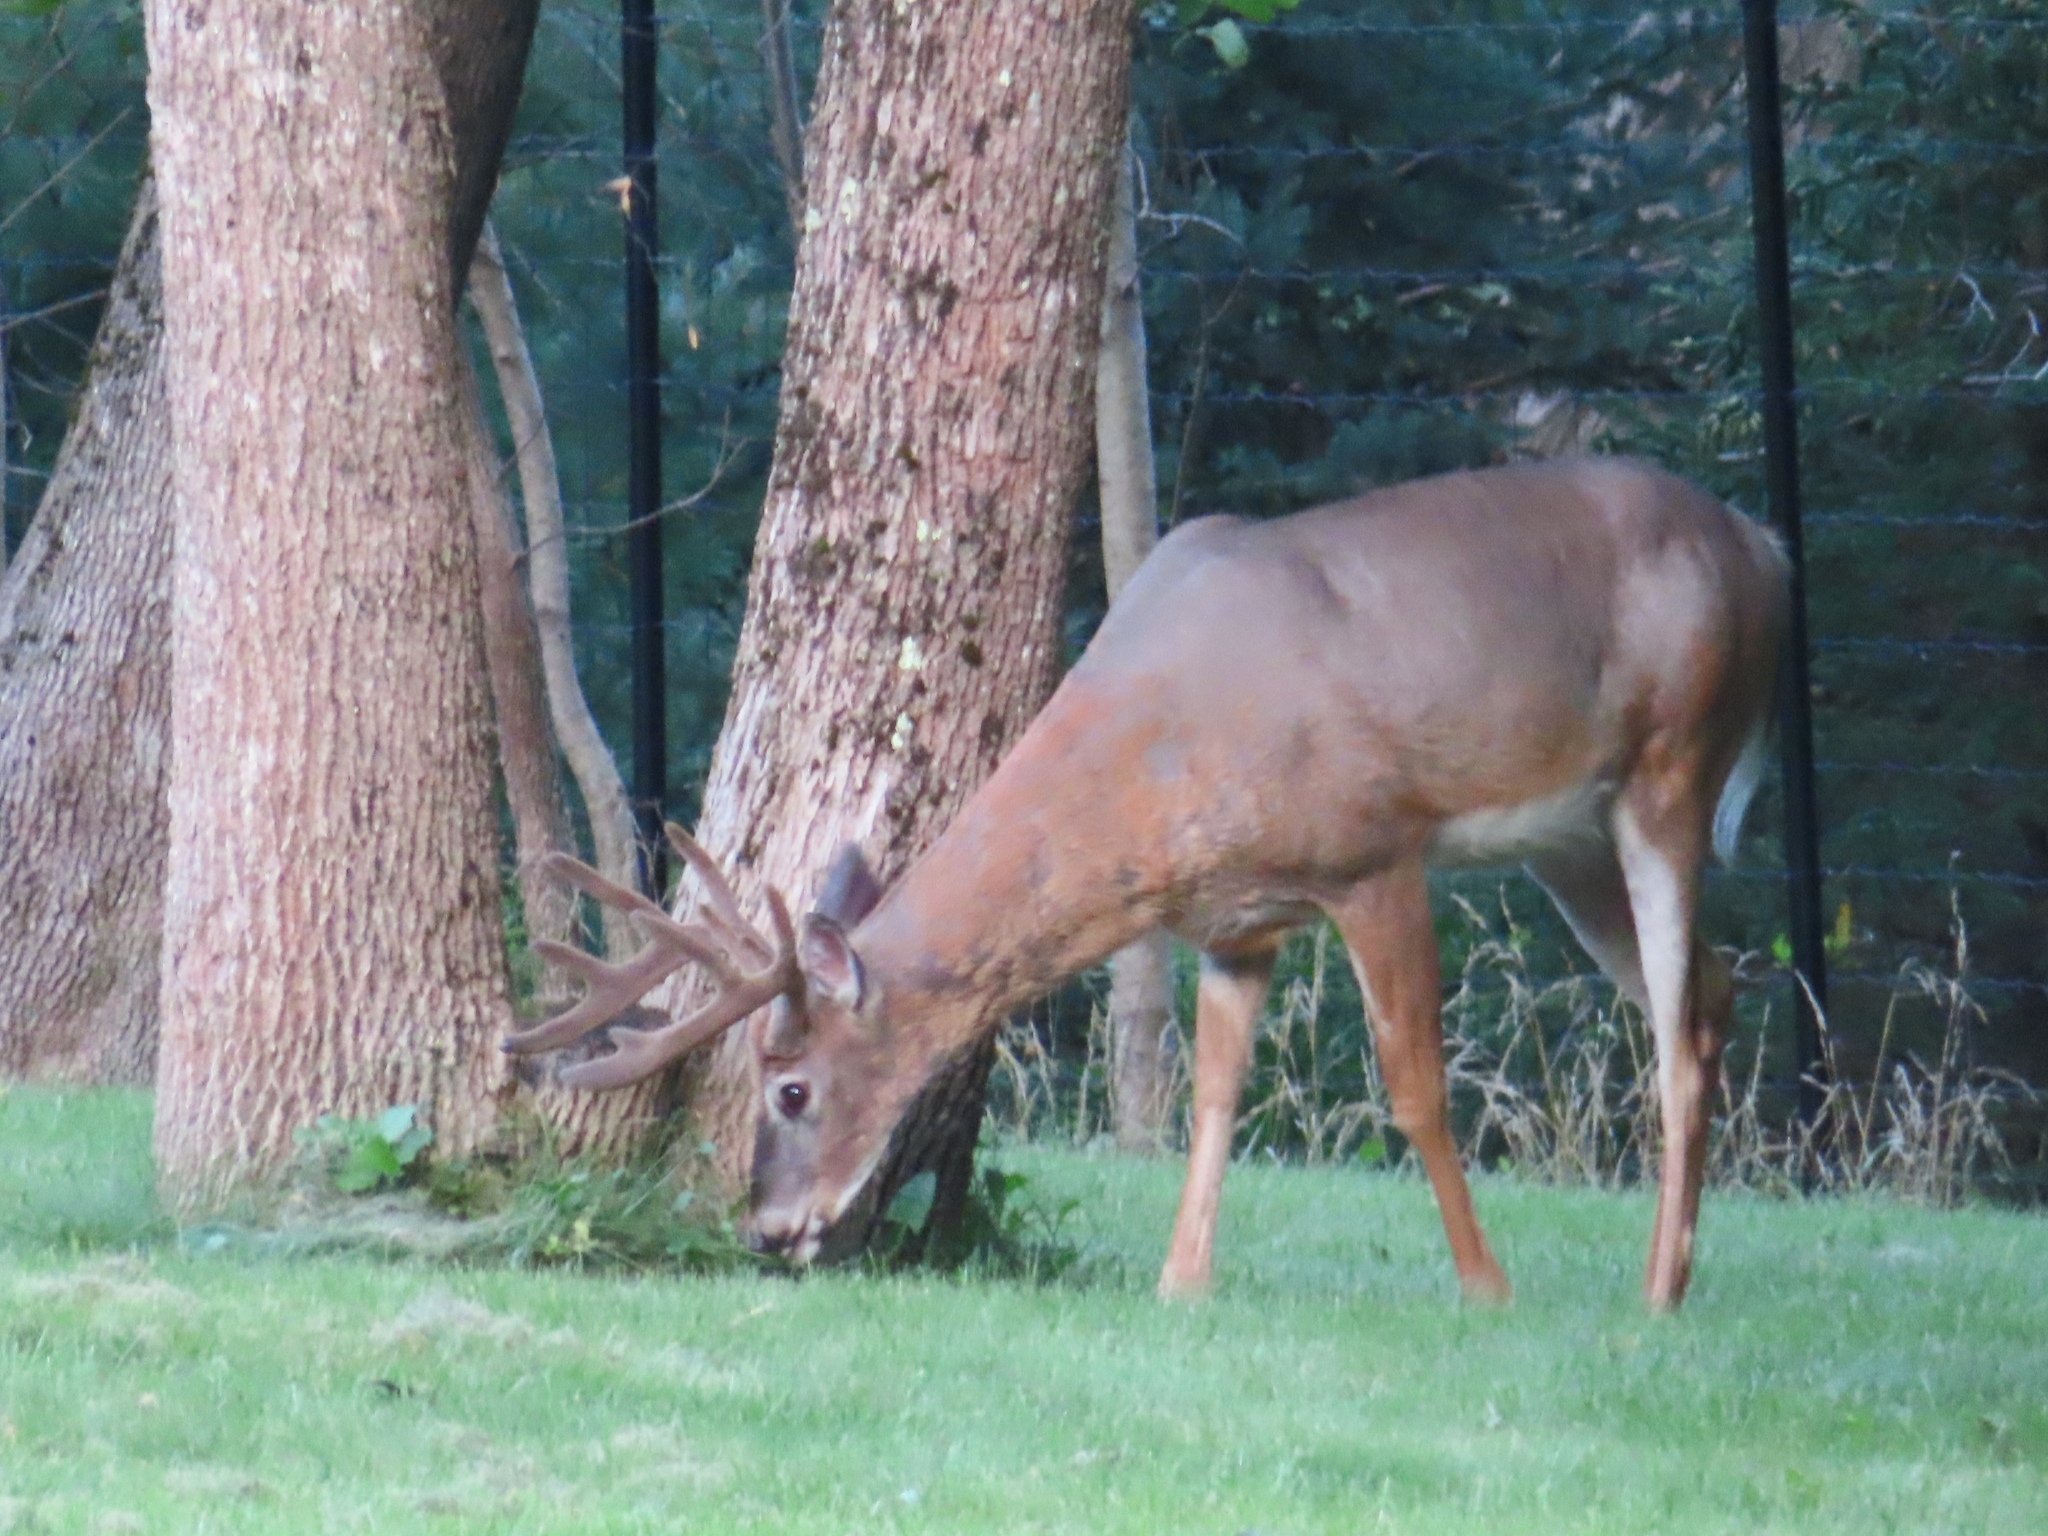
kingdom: Animalia
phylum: Chordata
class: Mammalia
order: Artiodactyla
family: Cervidae
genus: Odocoileus
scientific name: Odocoileus virginianus
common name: White-tailed deer
